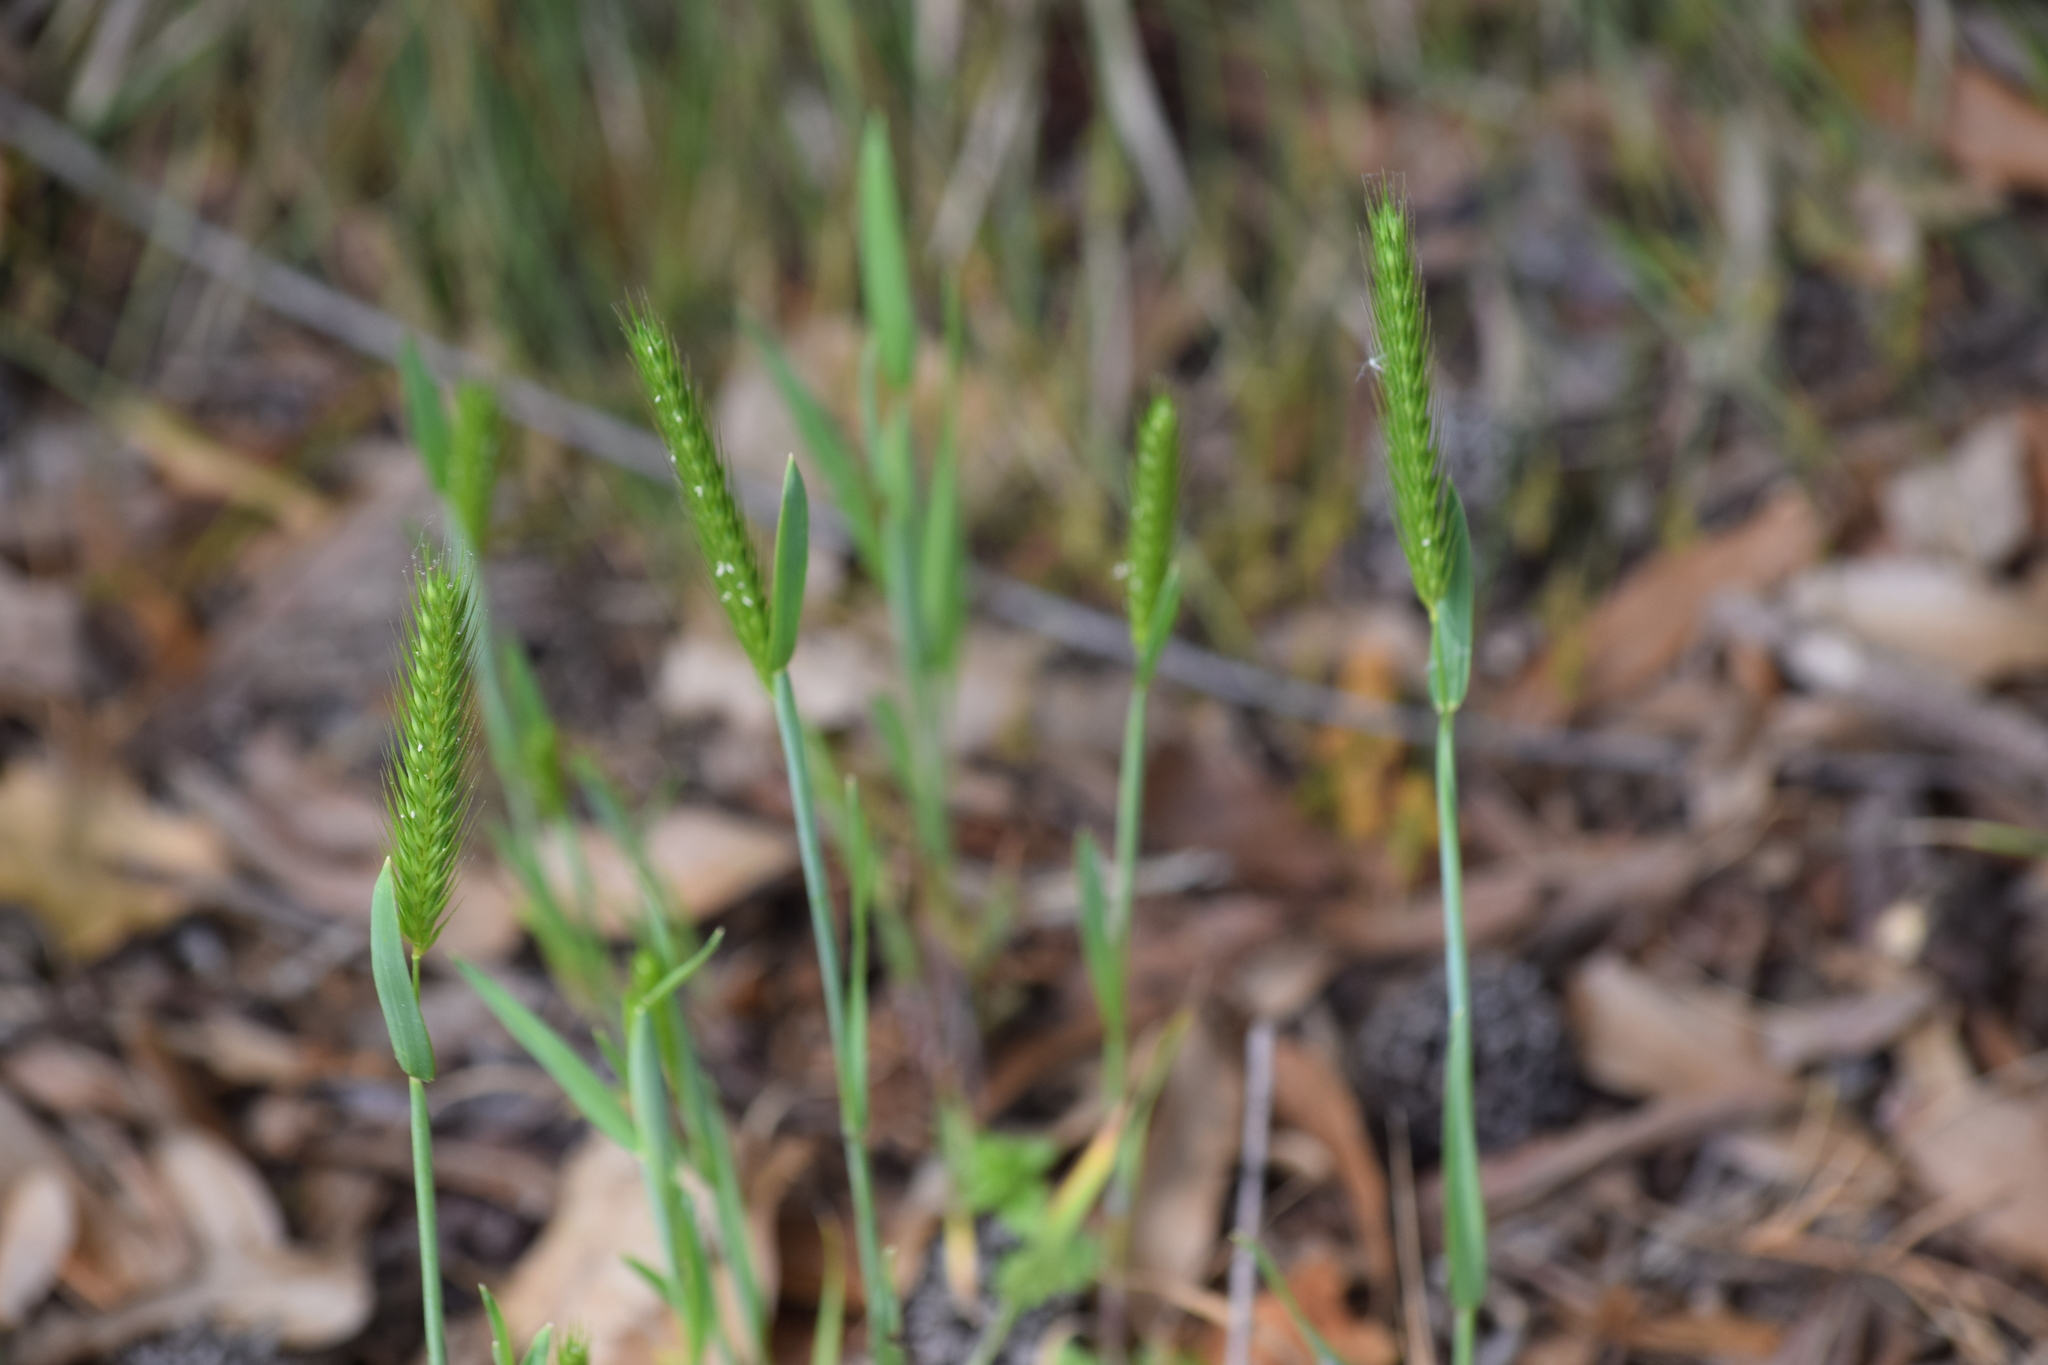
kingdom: Plantae
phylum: Tracheophyta
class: Liliopsida
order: Poales
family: Poaceae
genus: Hordeum
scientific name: Hordeum pusillum
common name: Little barley
